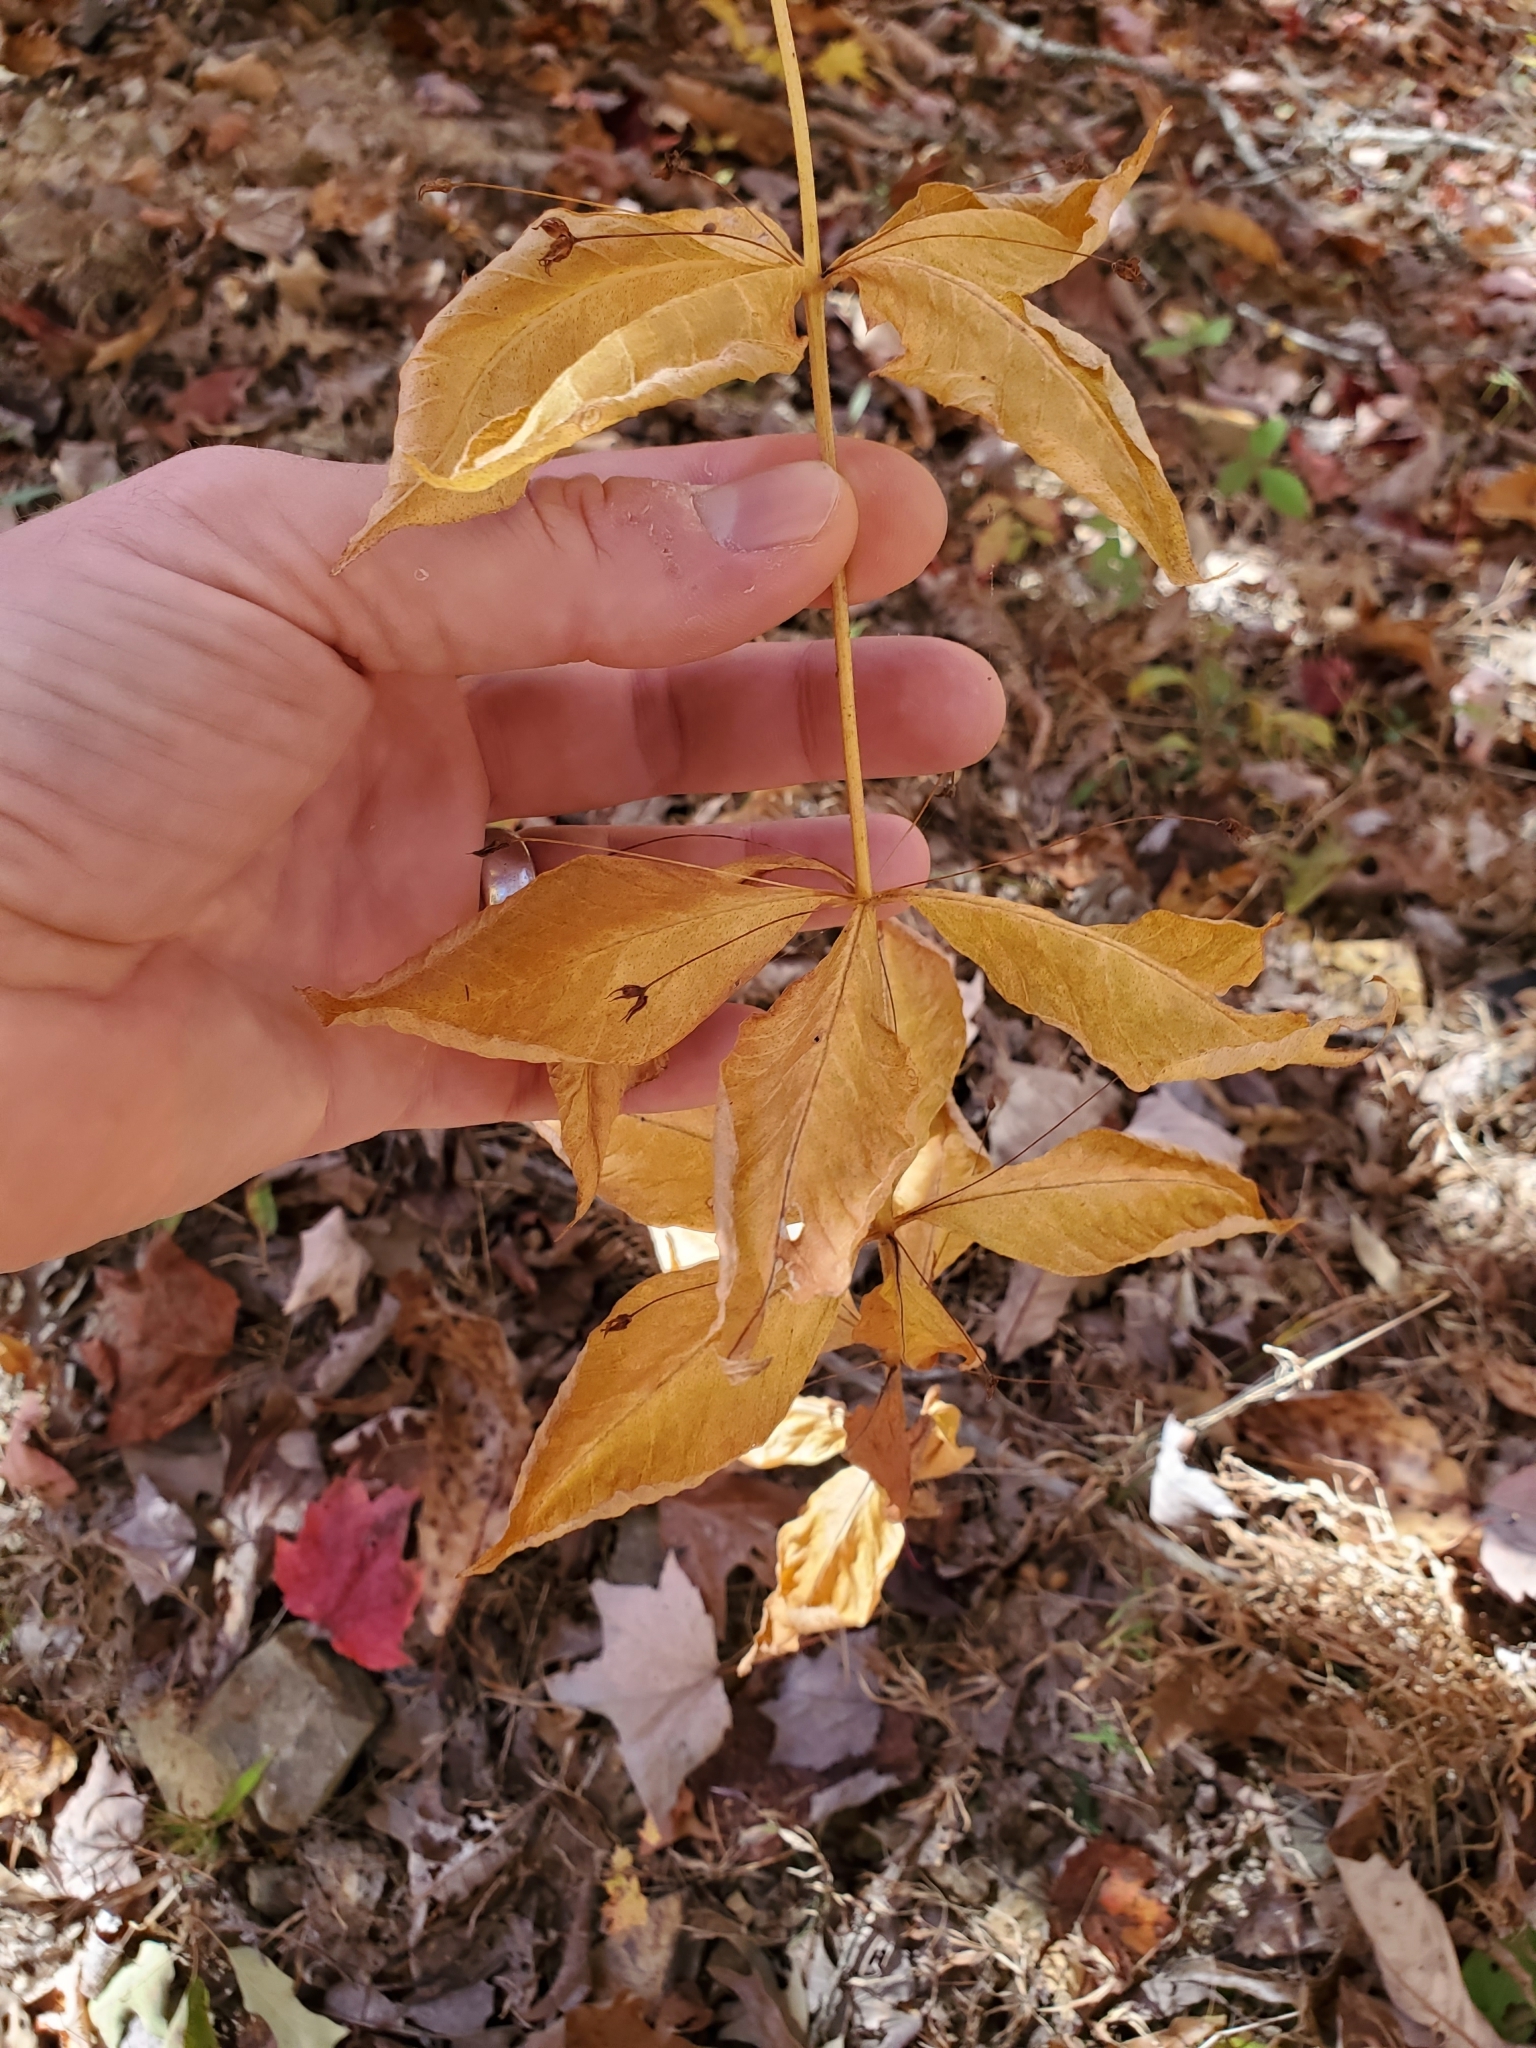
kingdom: Plantae
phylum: Tracheophyta
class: Magnoliopsida
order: Ericales
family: Primulaceae
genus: Lysimachia
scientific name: Lysimachia quadrifolia
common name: Whorled loosestrife
